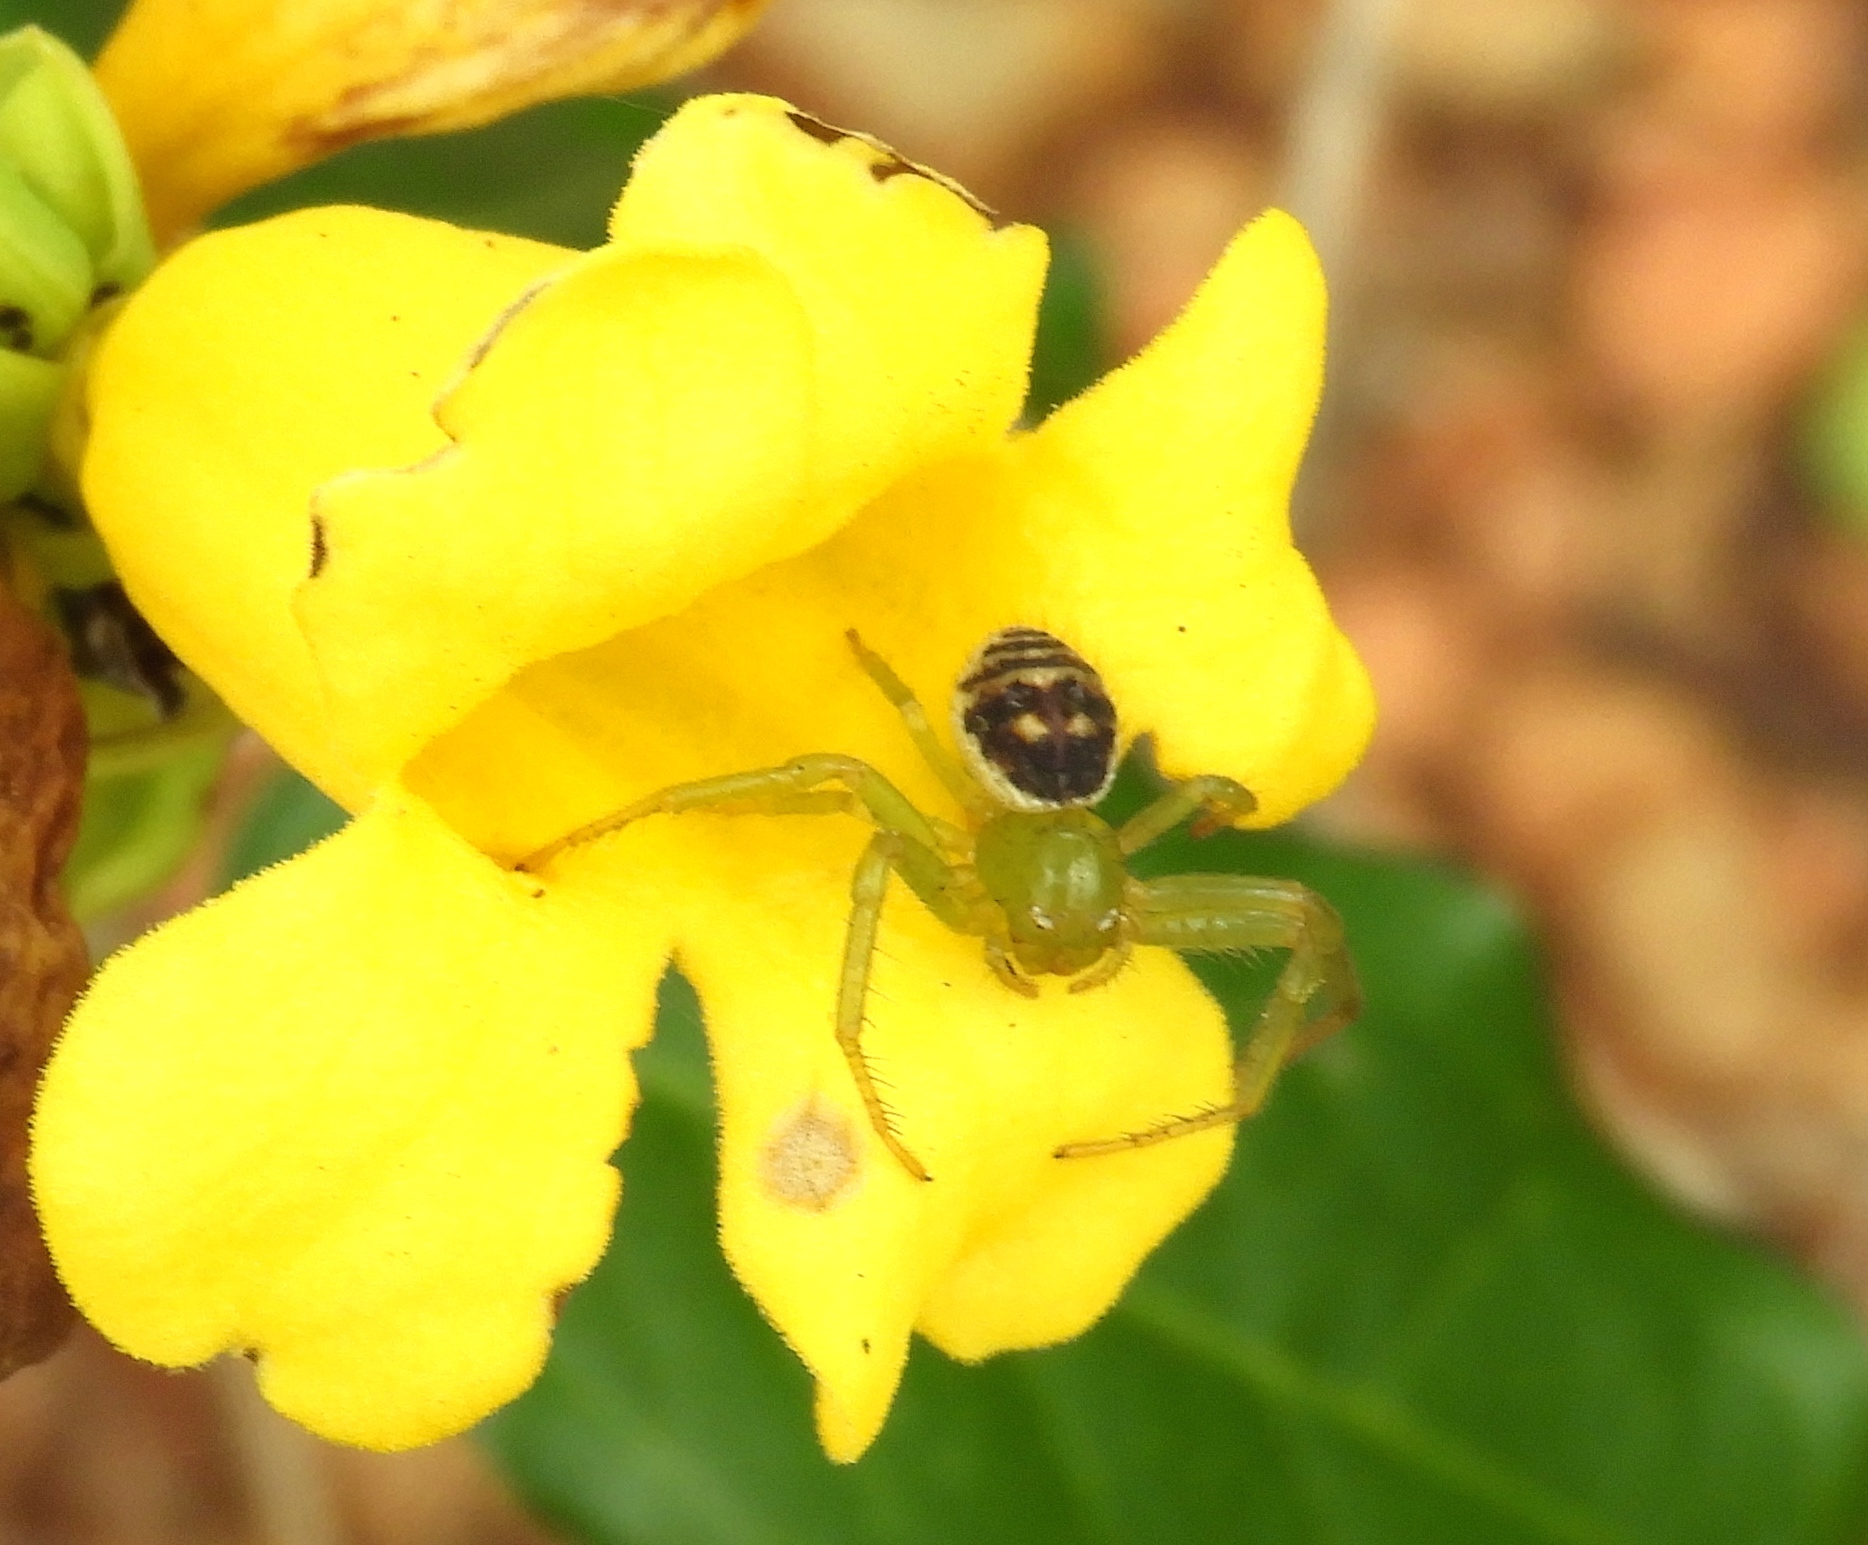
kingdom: Animalia
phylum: Arthropoda
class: Arachnida
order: Araneae
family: Thomisidae
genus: Parasynema
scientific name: Parasynema
